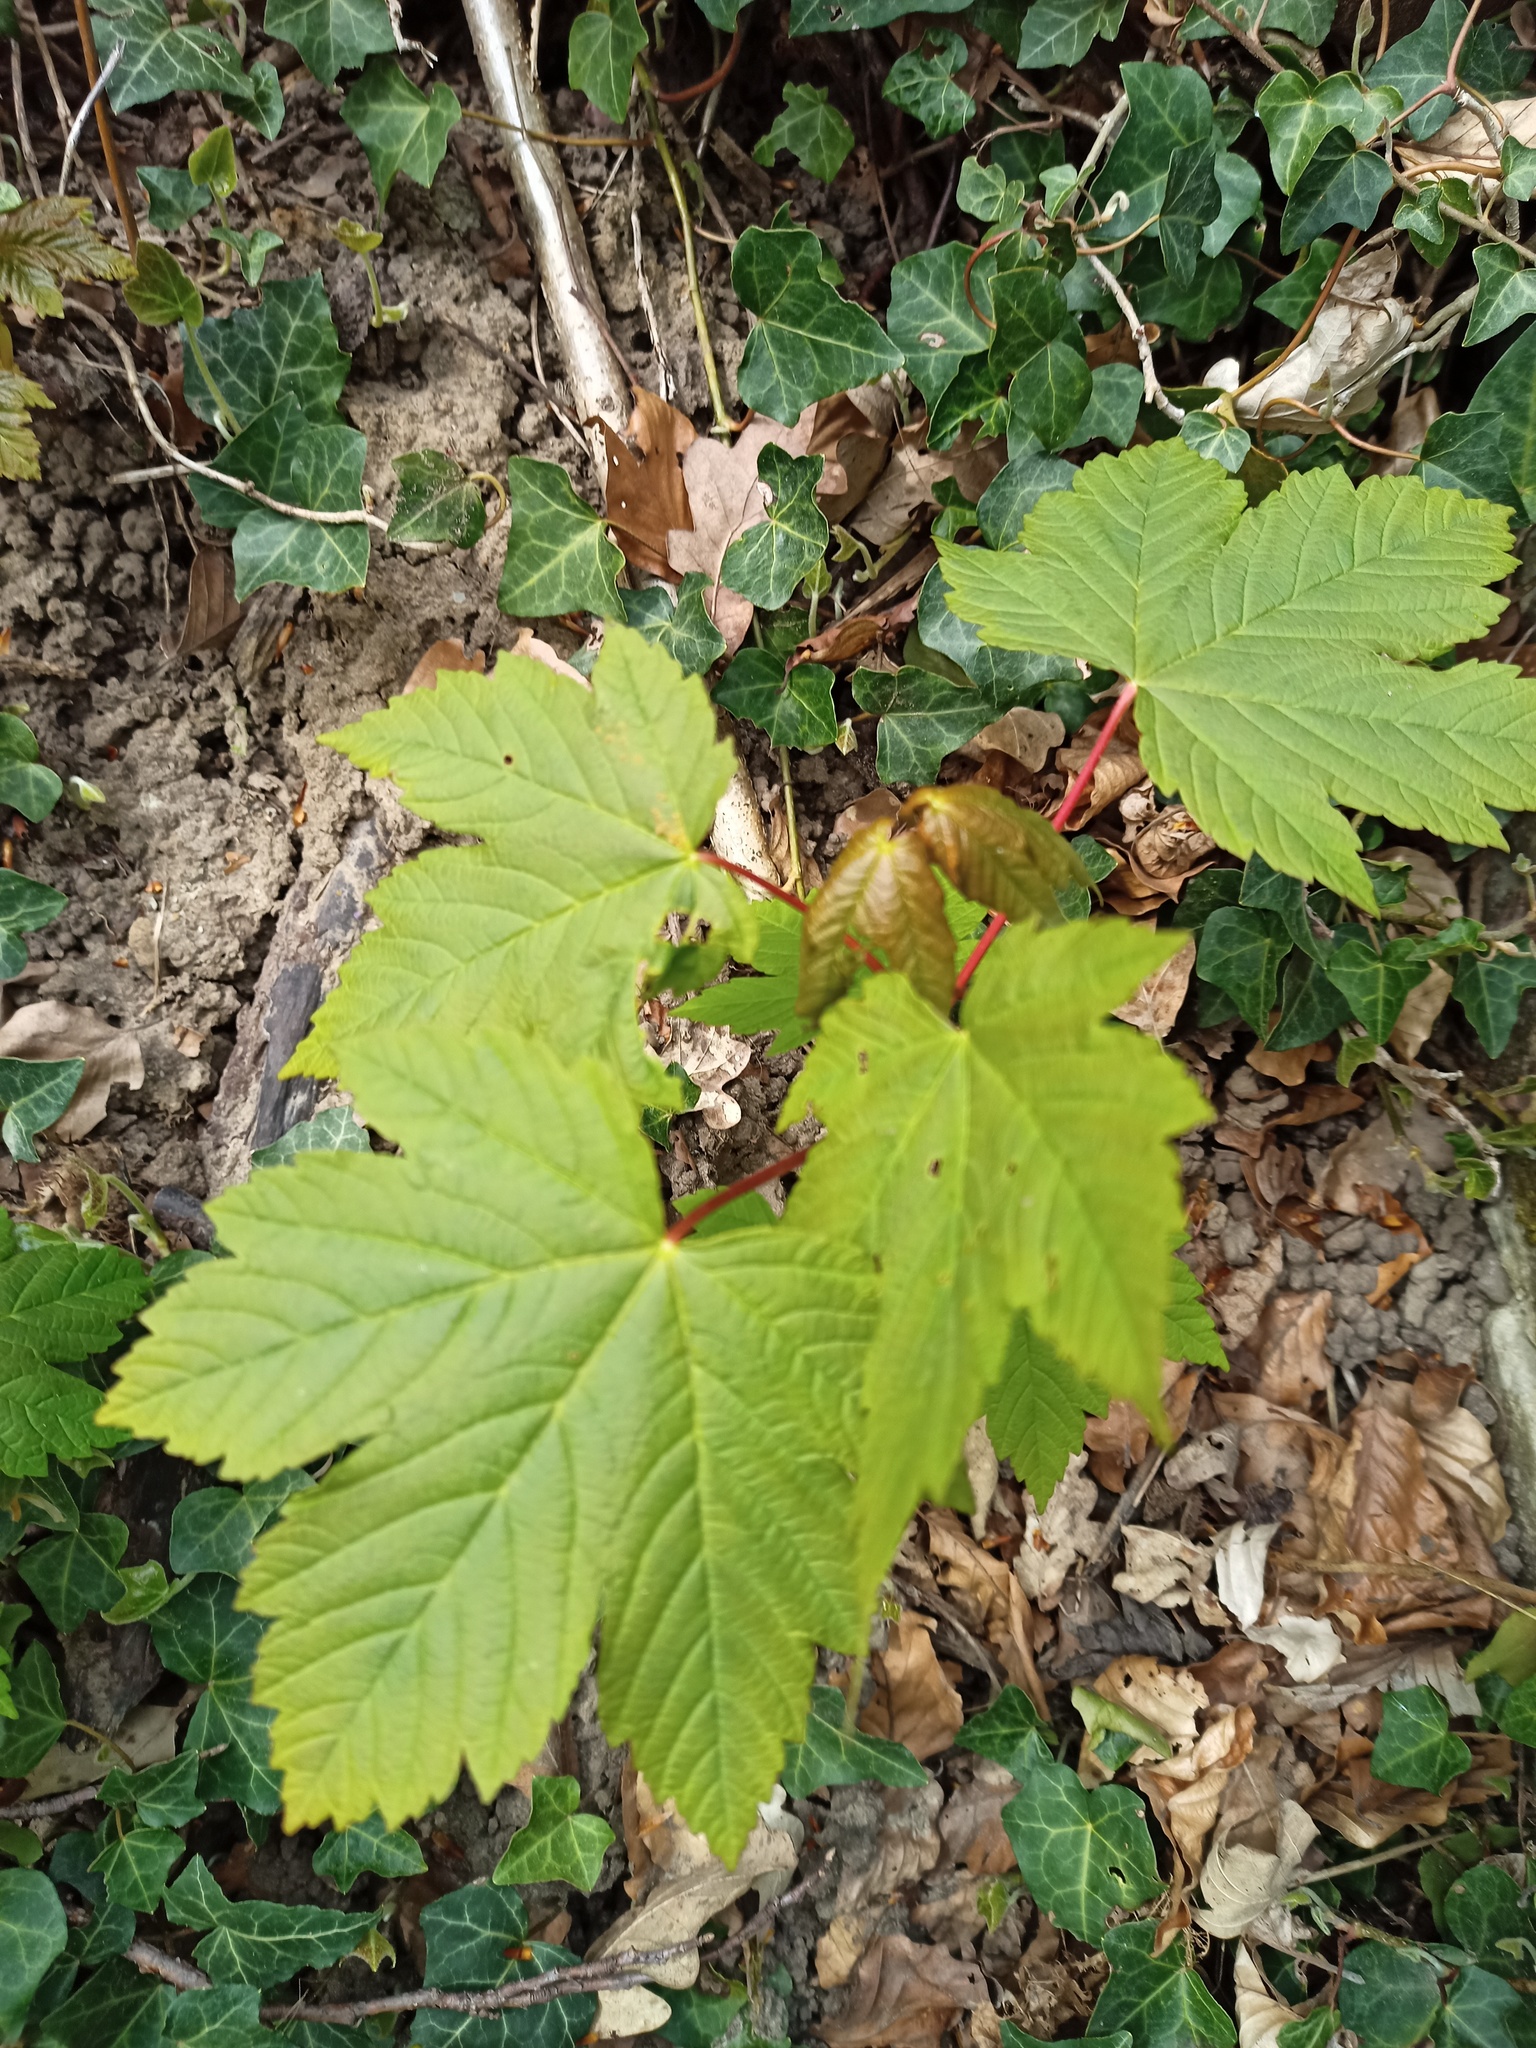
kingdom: Plantae
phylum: Tracheophyta
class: Magnoliopsida
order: Sapindales
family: Sapindaceae
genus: Acer
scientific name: Acer pseudoplatanus
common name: Sycamore
